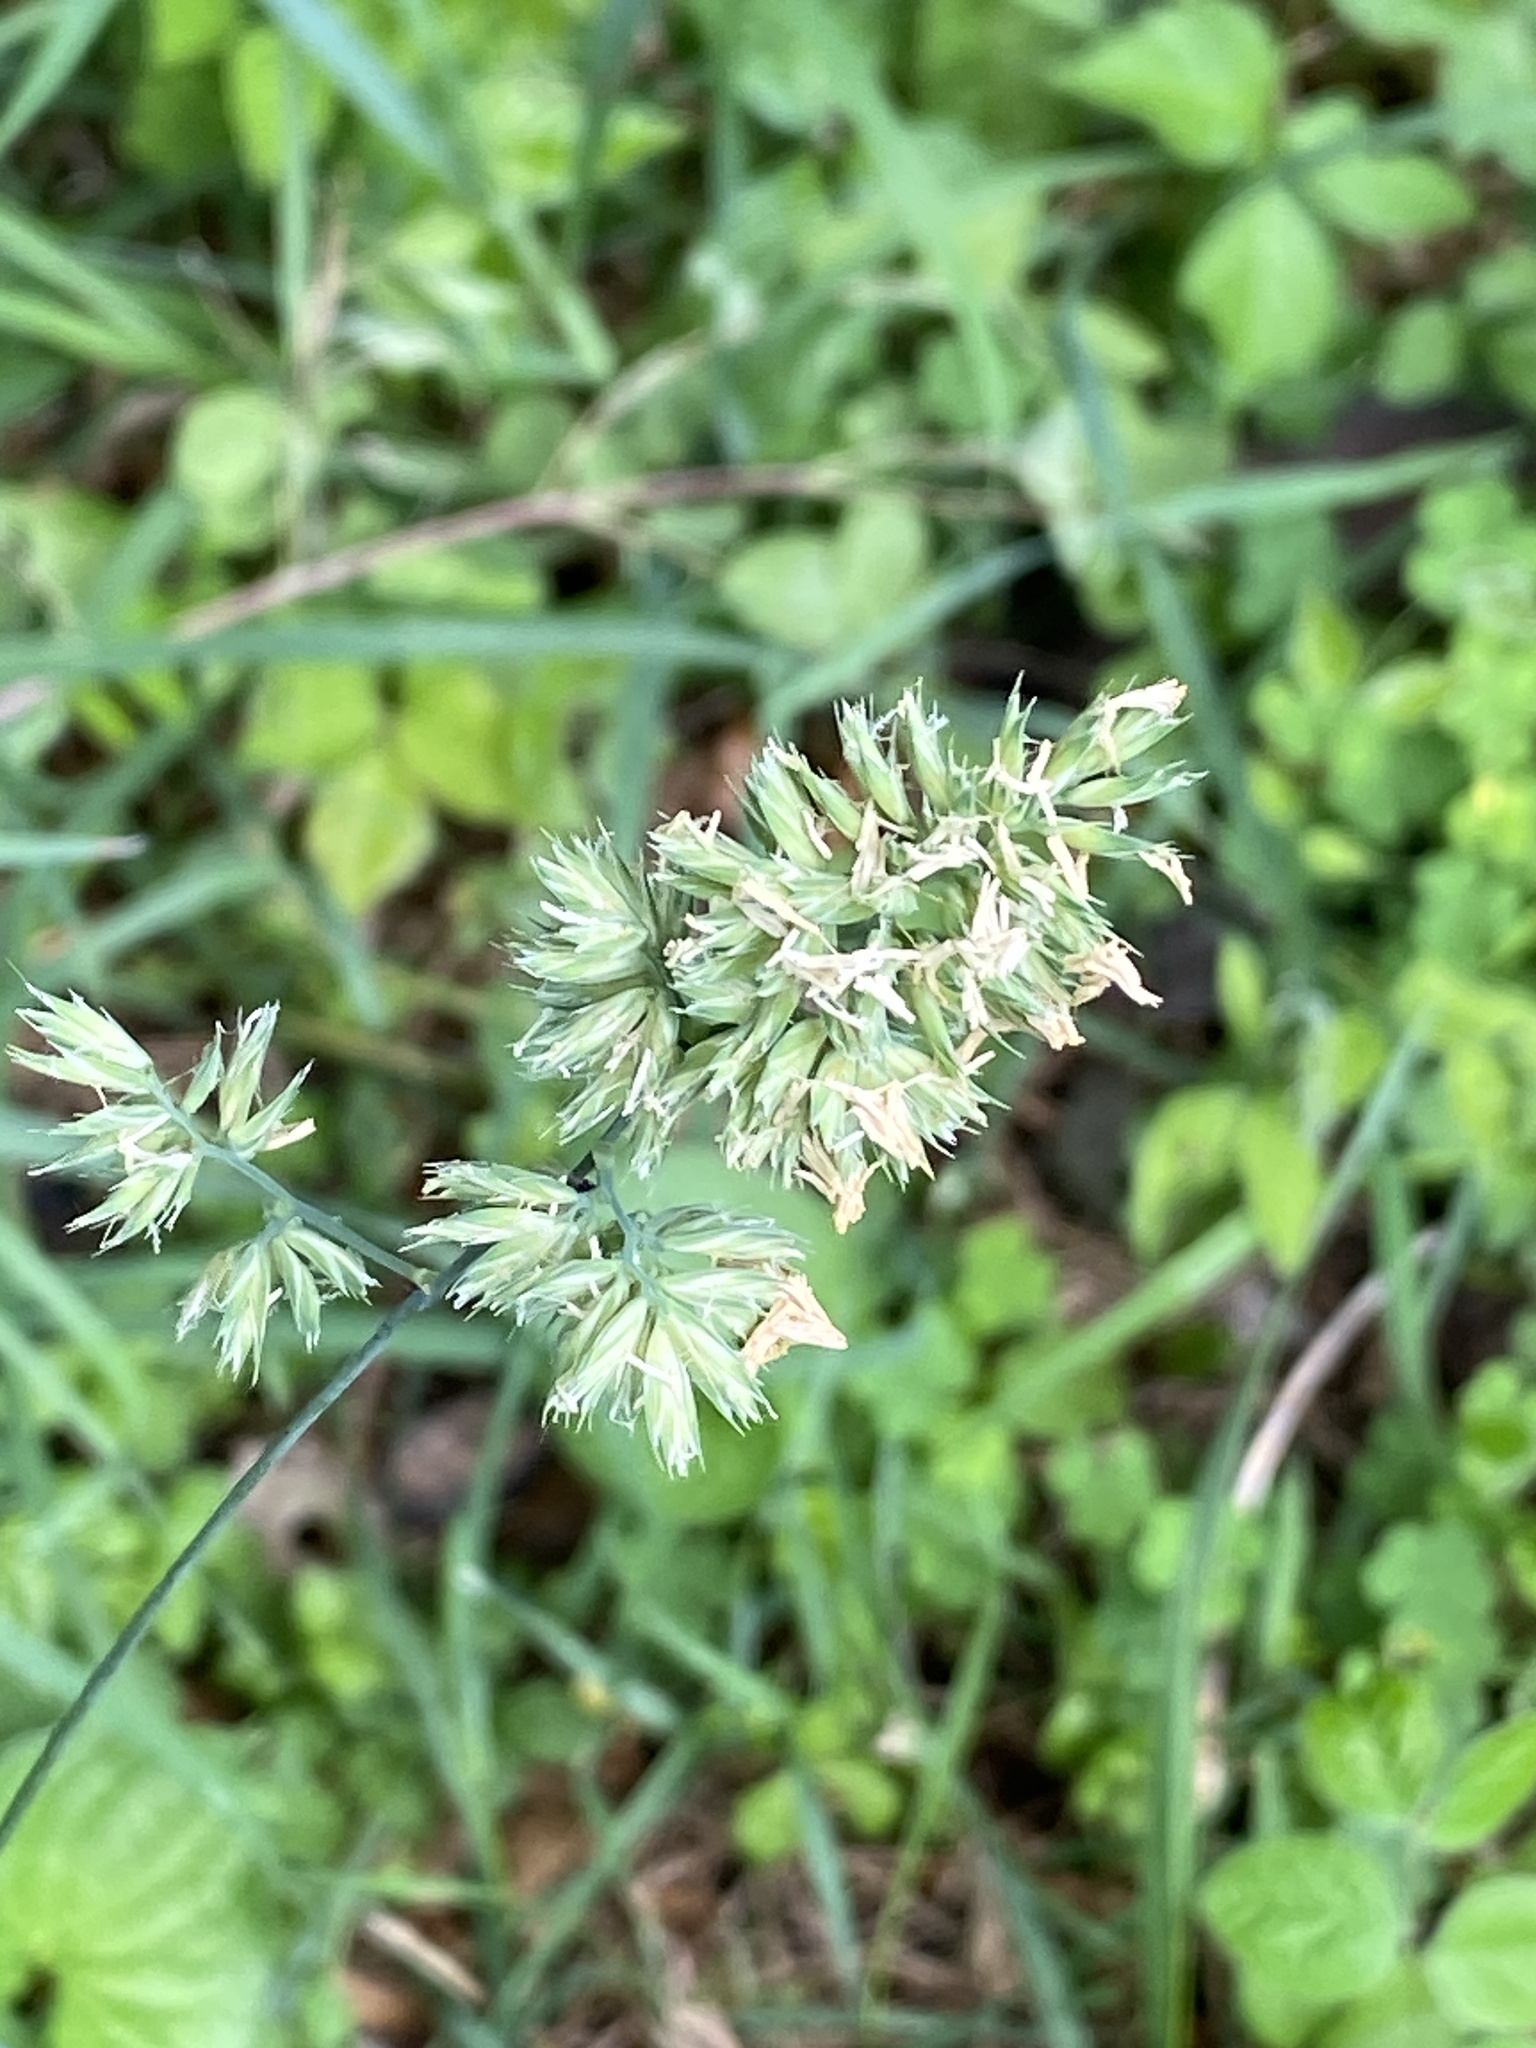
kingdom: Plantae
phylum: Tracheophyta
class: Liliopsida
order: Poales
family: Poaceae
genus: Dactylis
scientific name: Dactylis glomerata
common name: Orchardgrass
